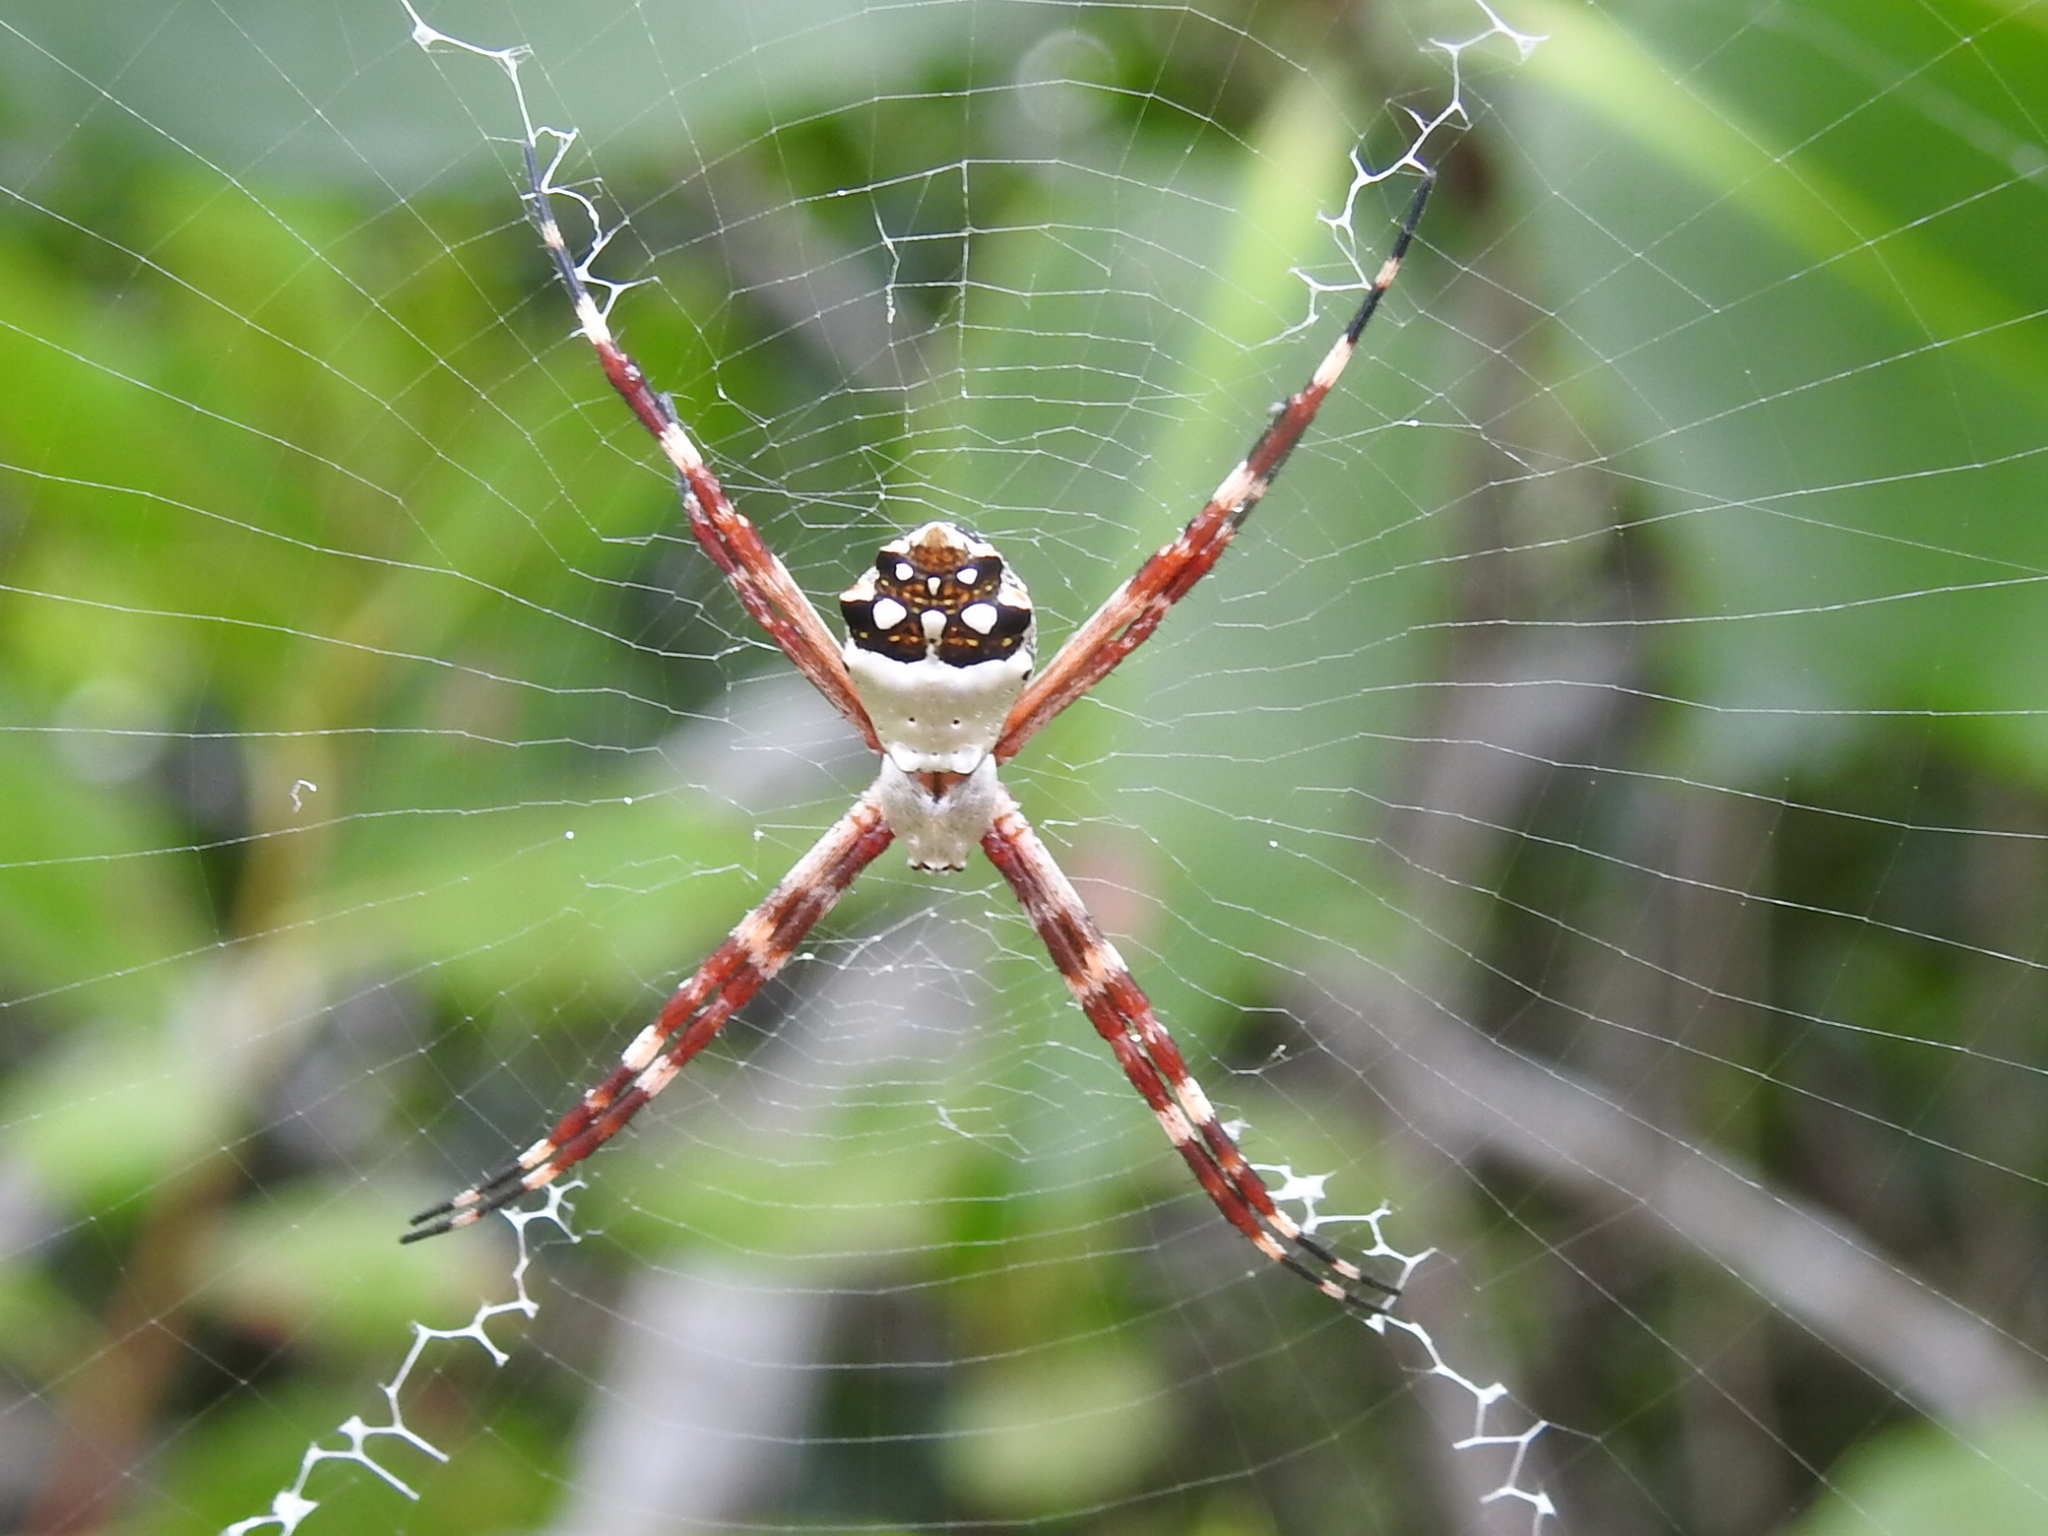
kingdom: Animalia
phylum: Arthropoda
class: Arachnida
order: Araneae
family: Araneidae
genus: Argiope
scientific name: Argiope argentata
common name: Orb weavers
